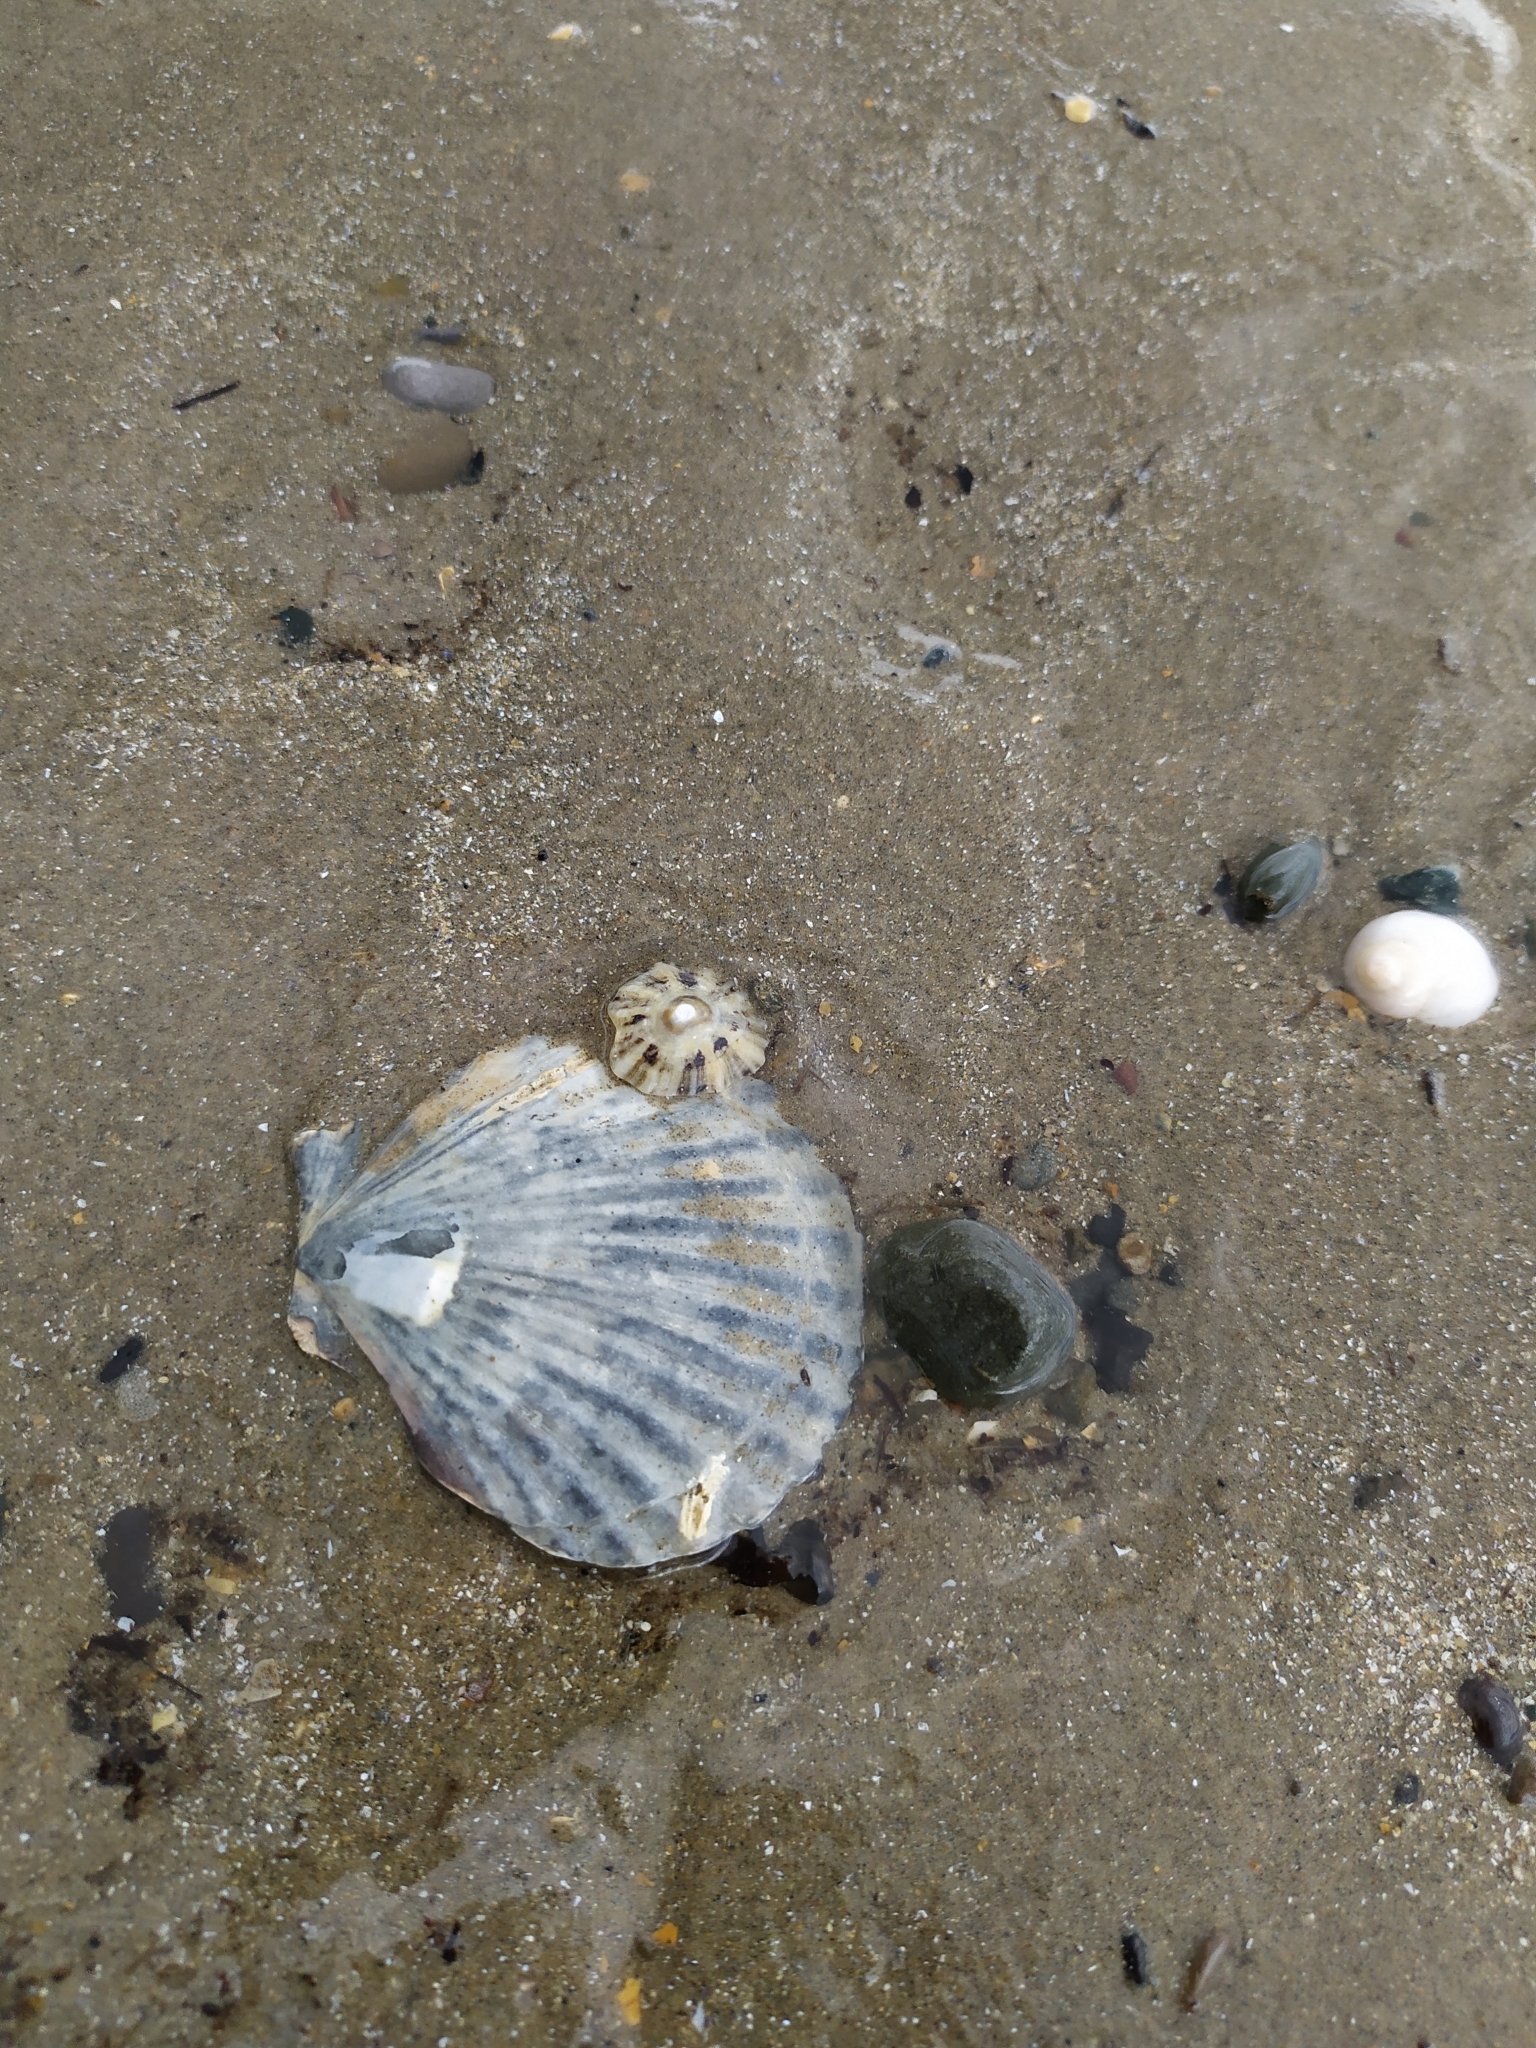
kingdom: Animalia
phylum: Mollusca
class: Bivalvia
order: Pectinida
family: Pectinidae
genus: Aequipecten
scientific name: Aequipecten opercularis
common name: Queen scallop
